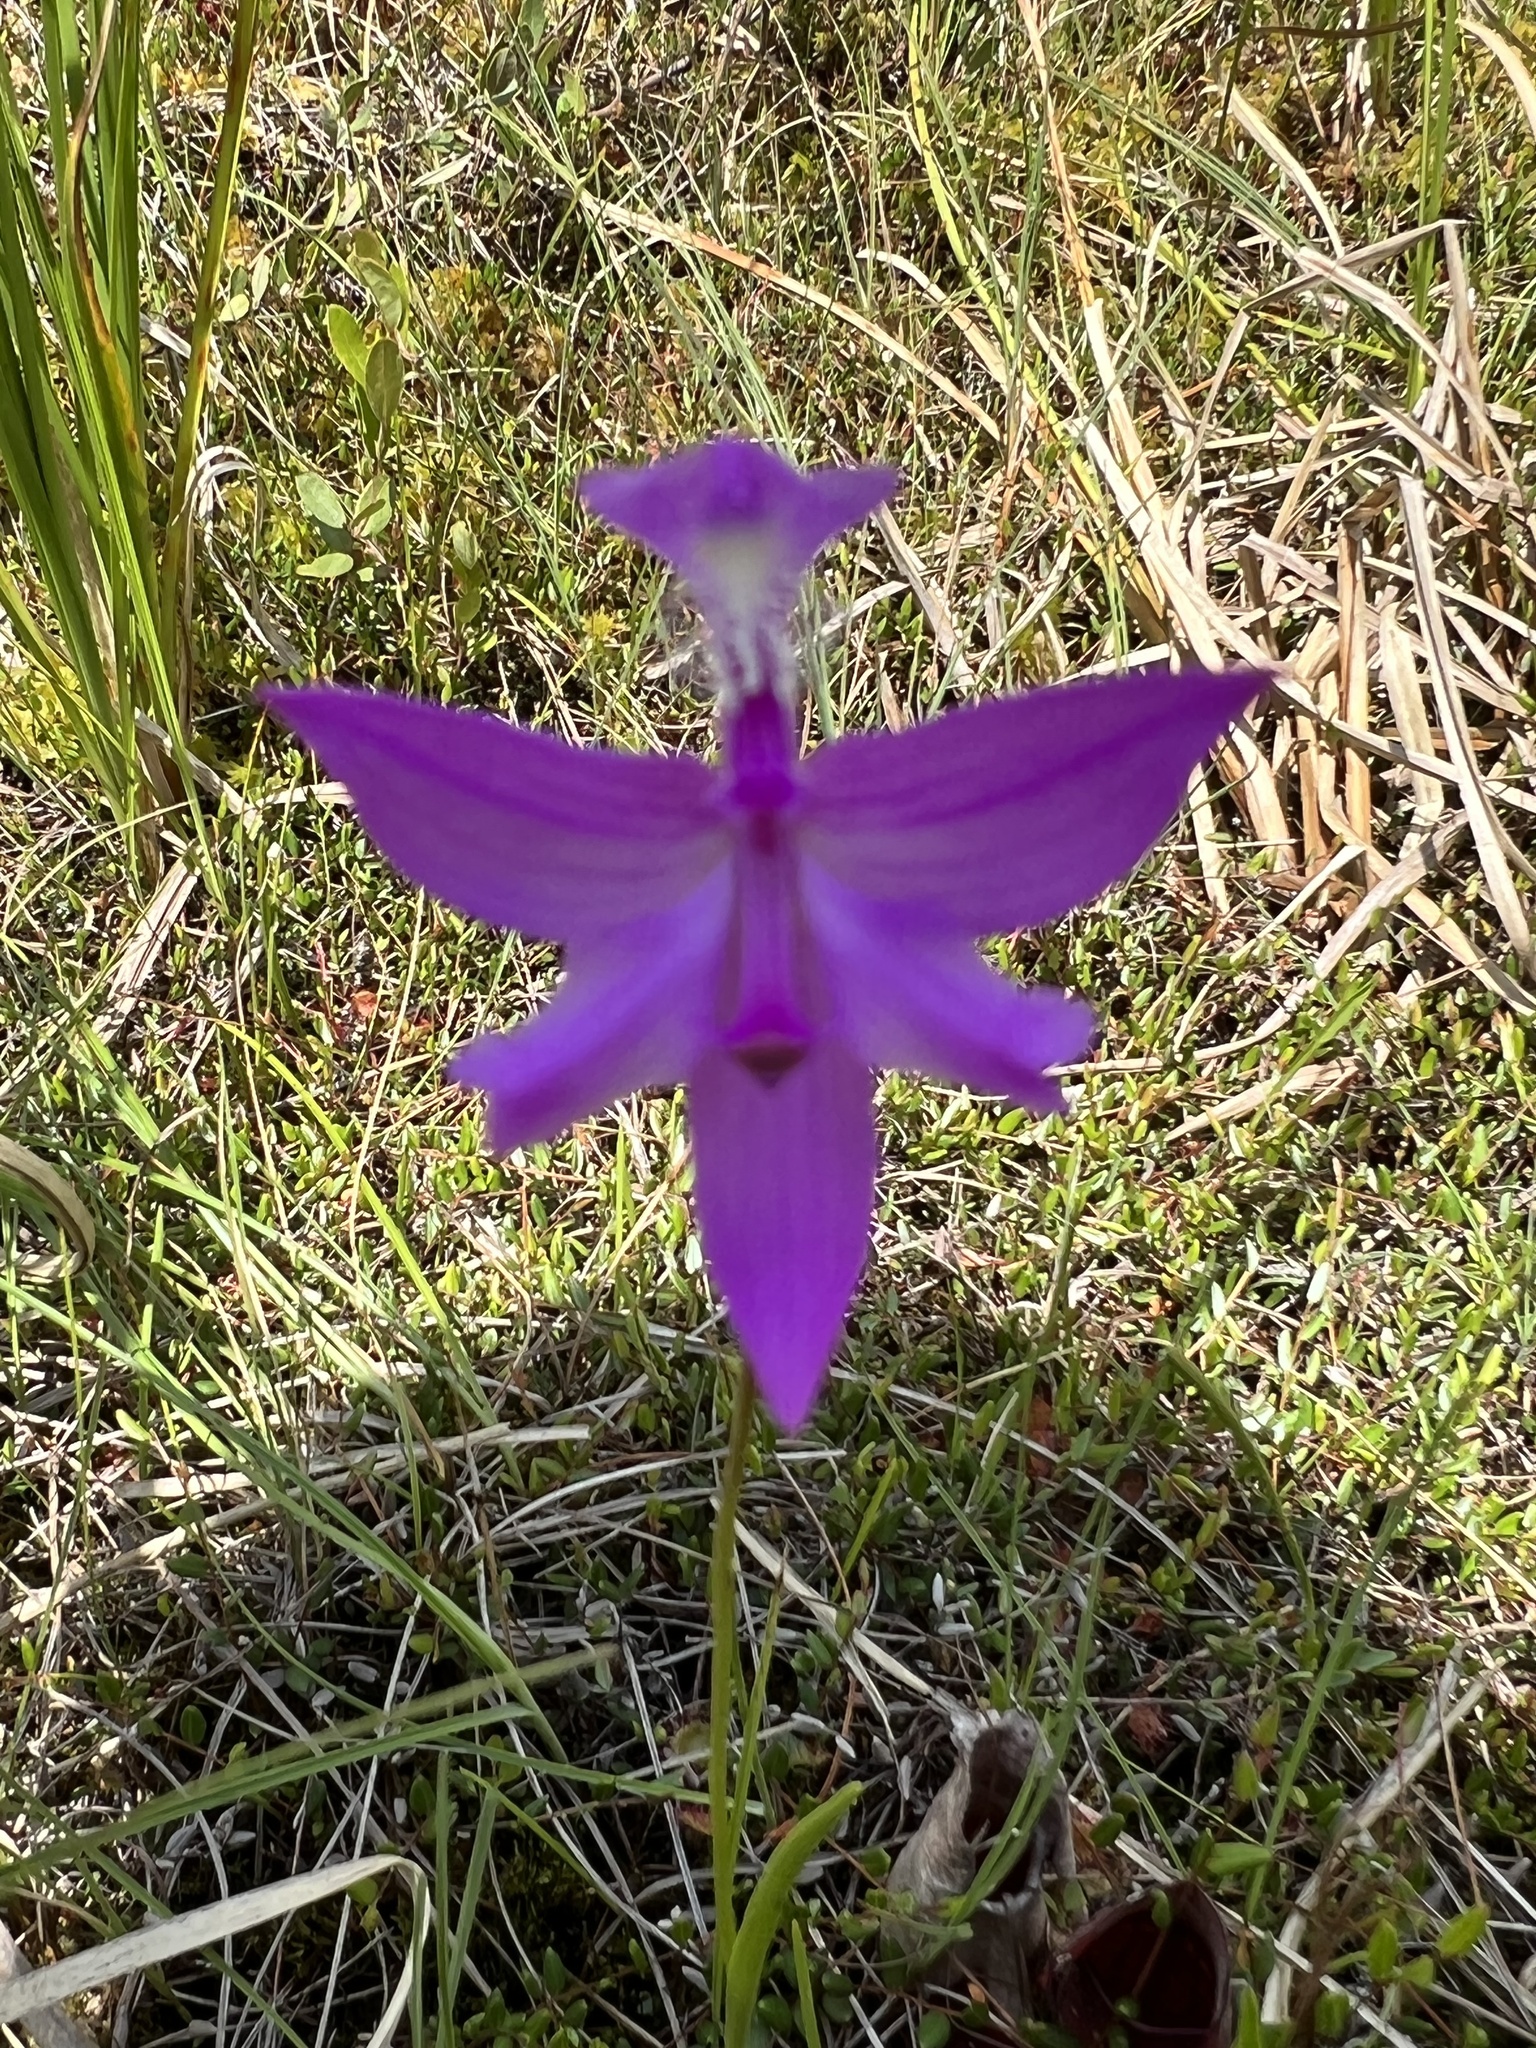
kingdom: Plantae
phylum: Tracheophyta
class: Liliopsida
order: Asparagales
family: Orchidaceae
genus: Calopogon
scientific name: Calopogon tuberosus
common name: Grass-pink
